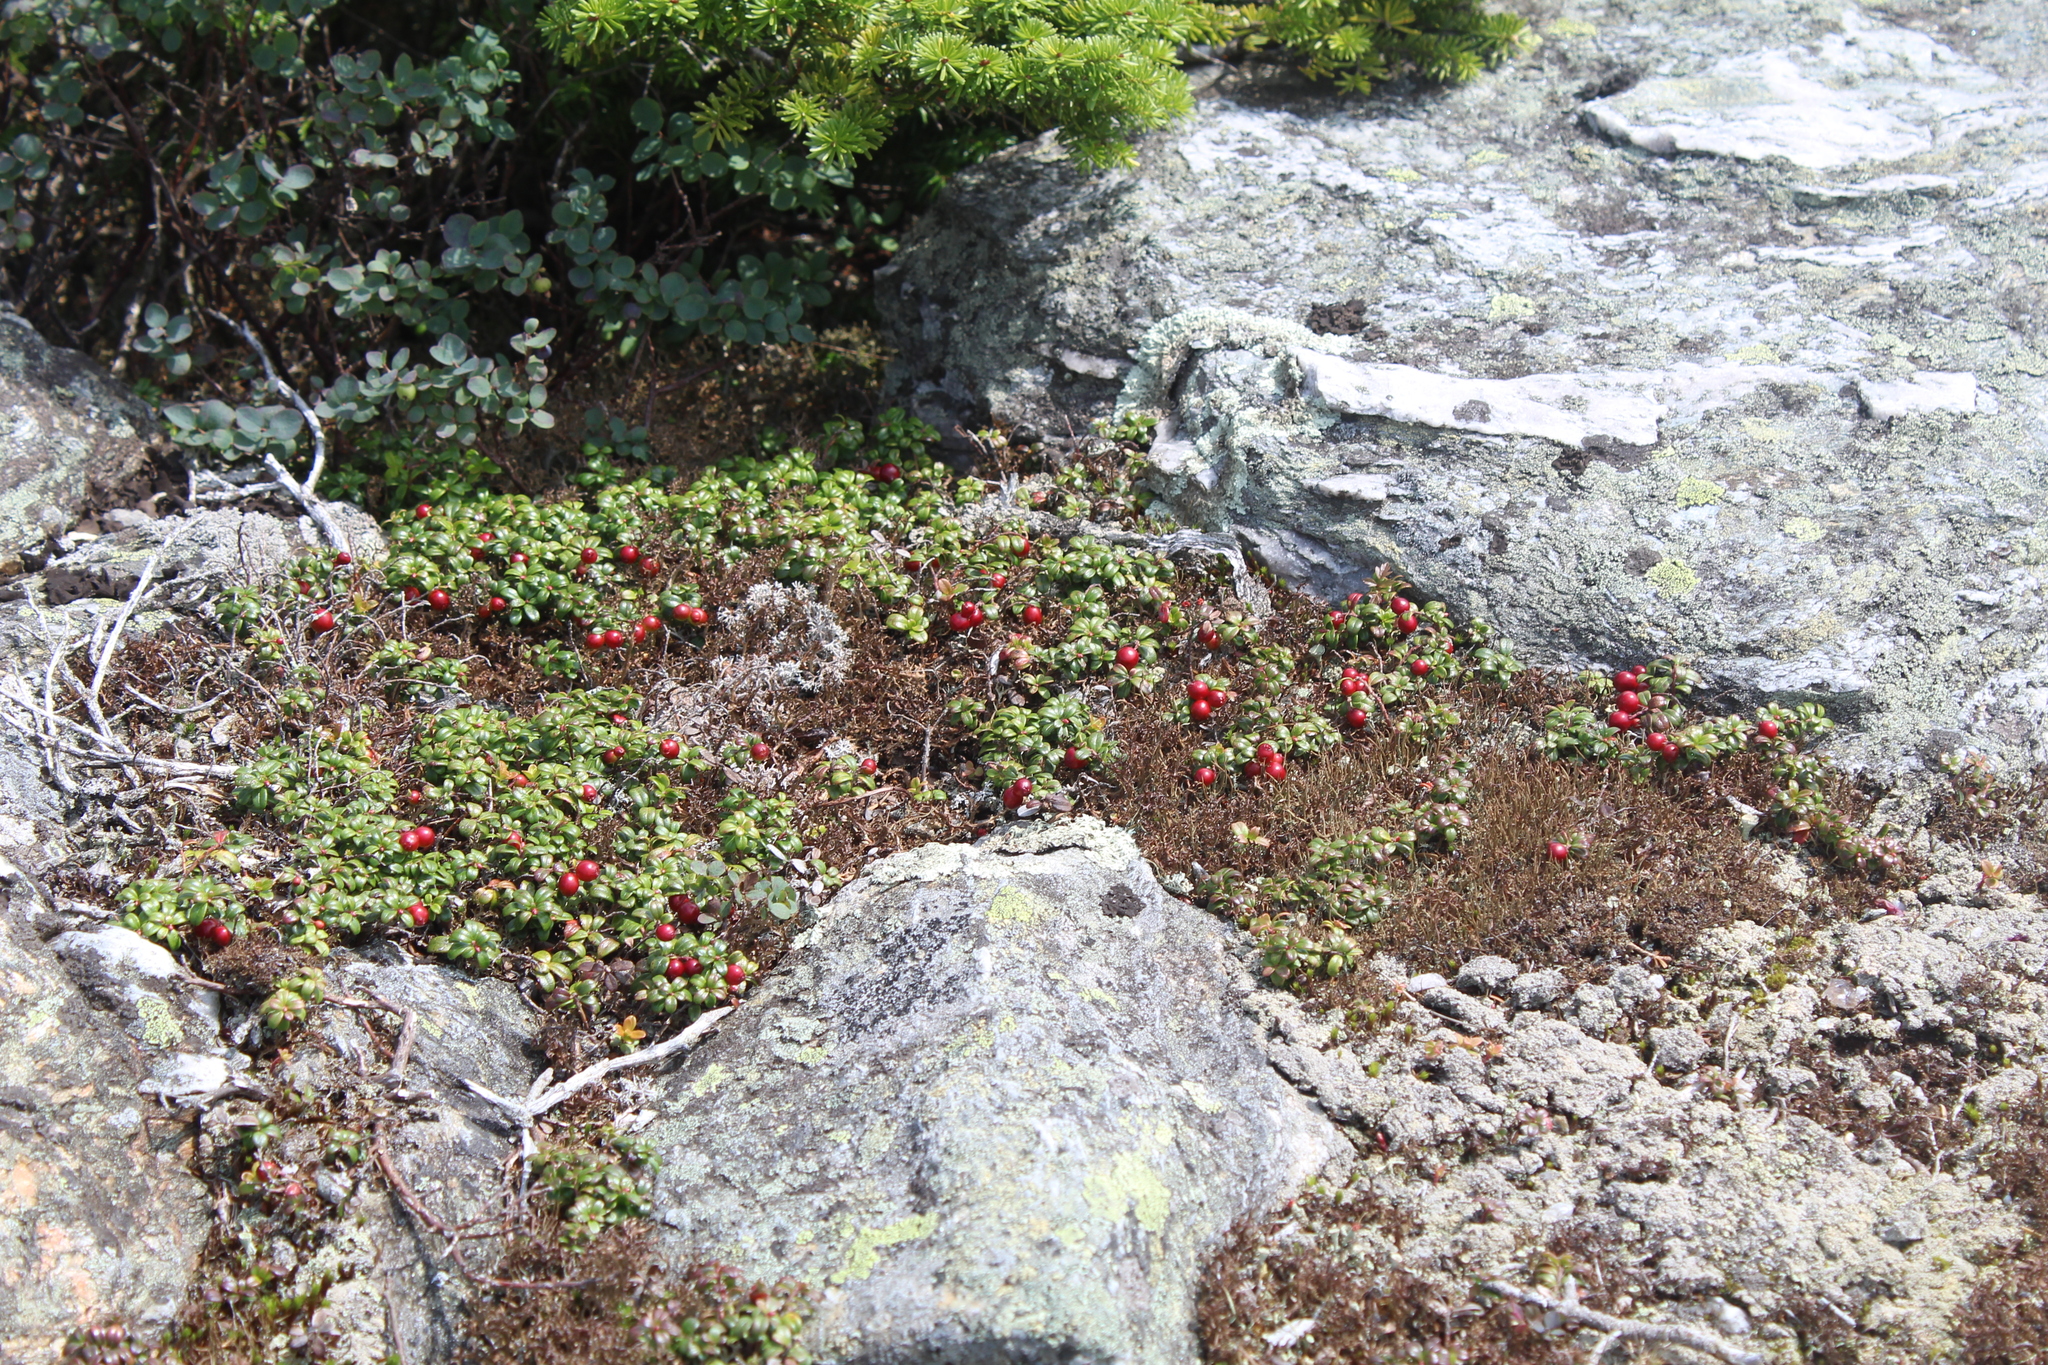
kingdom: Plantae
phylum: Tracheophyta
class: Magnoliopsida
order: Ericales
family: Ericaceae
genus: Vaccinium
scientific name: Vaccinium vitis-idaea
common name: Cowberry
